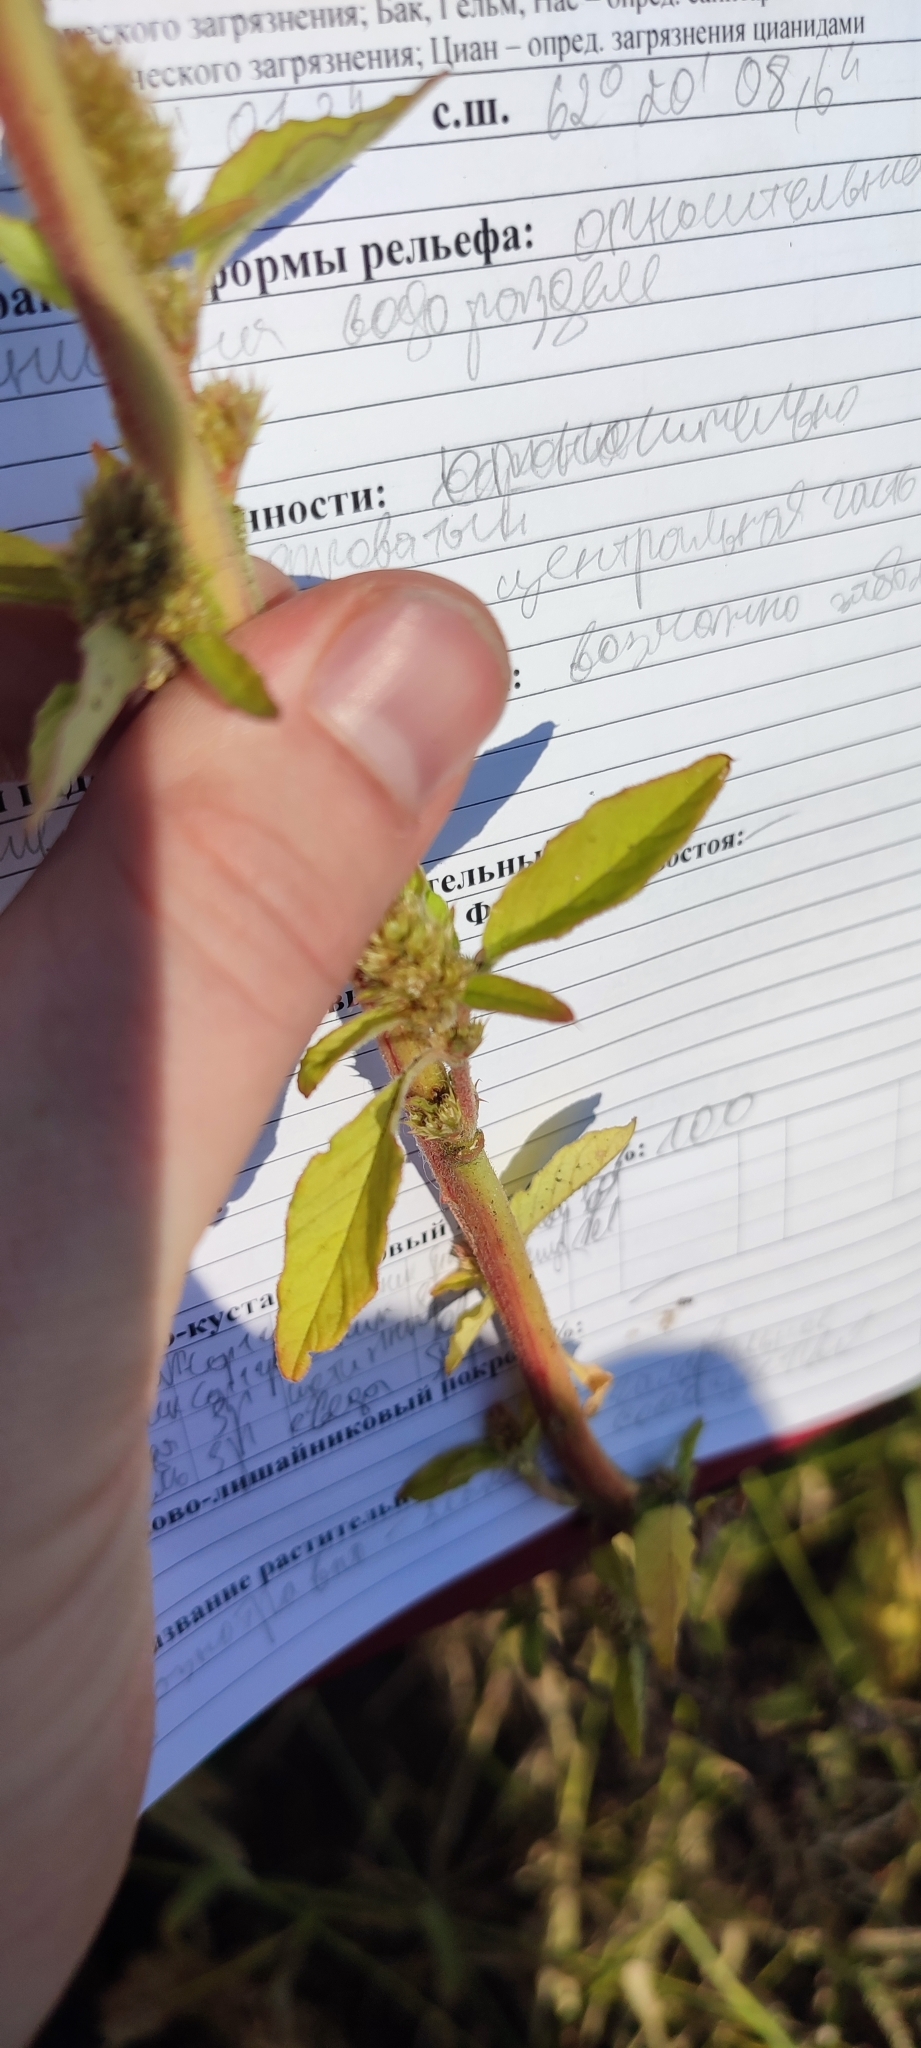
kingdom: Plantae
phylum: Tracheophyta
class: Magnoliopsida
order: Caryophyllales
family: Amaranthaceae
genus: Amaranthus
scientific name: Amaranthus retroflexus
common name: Redroot amaranth
